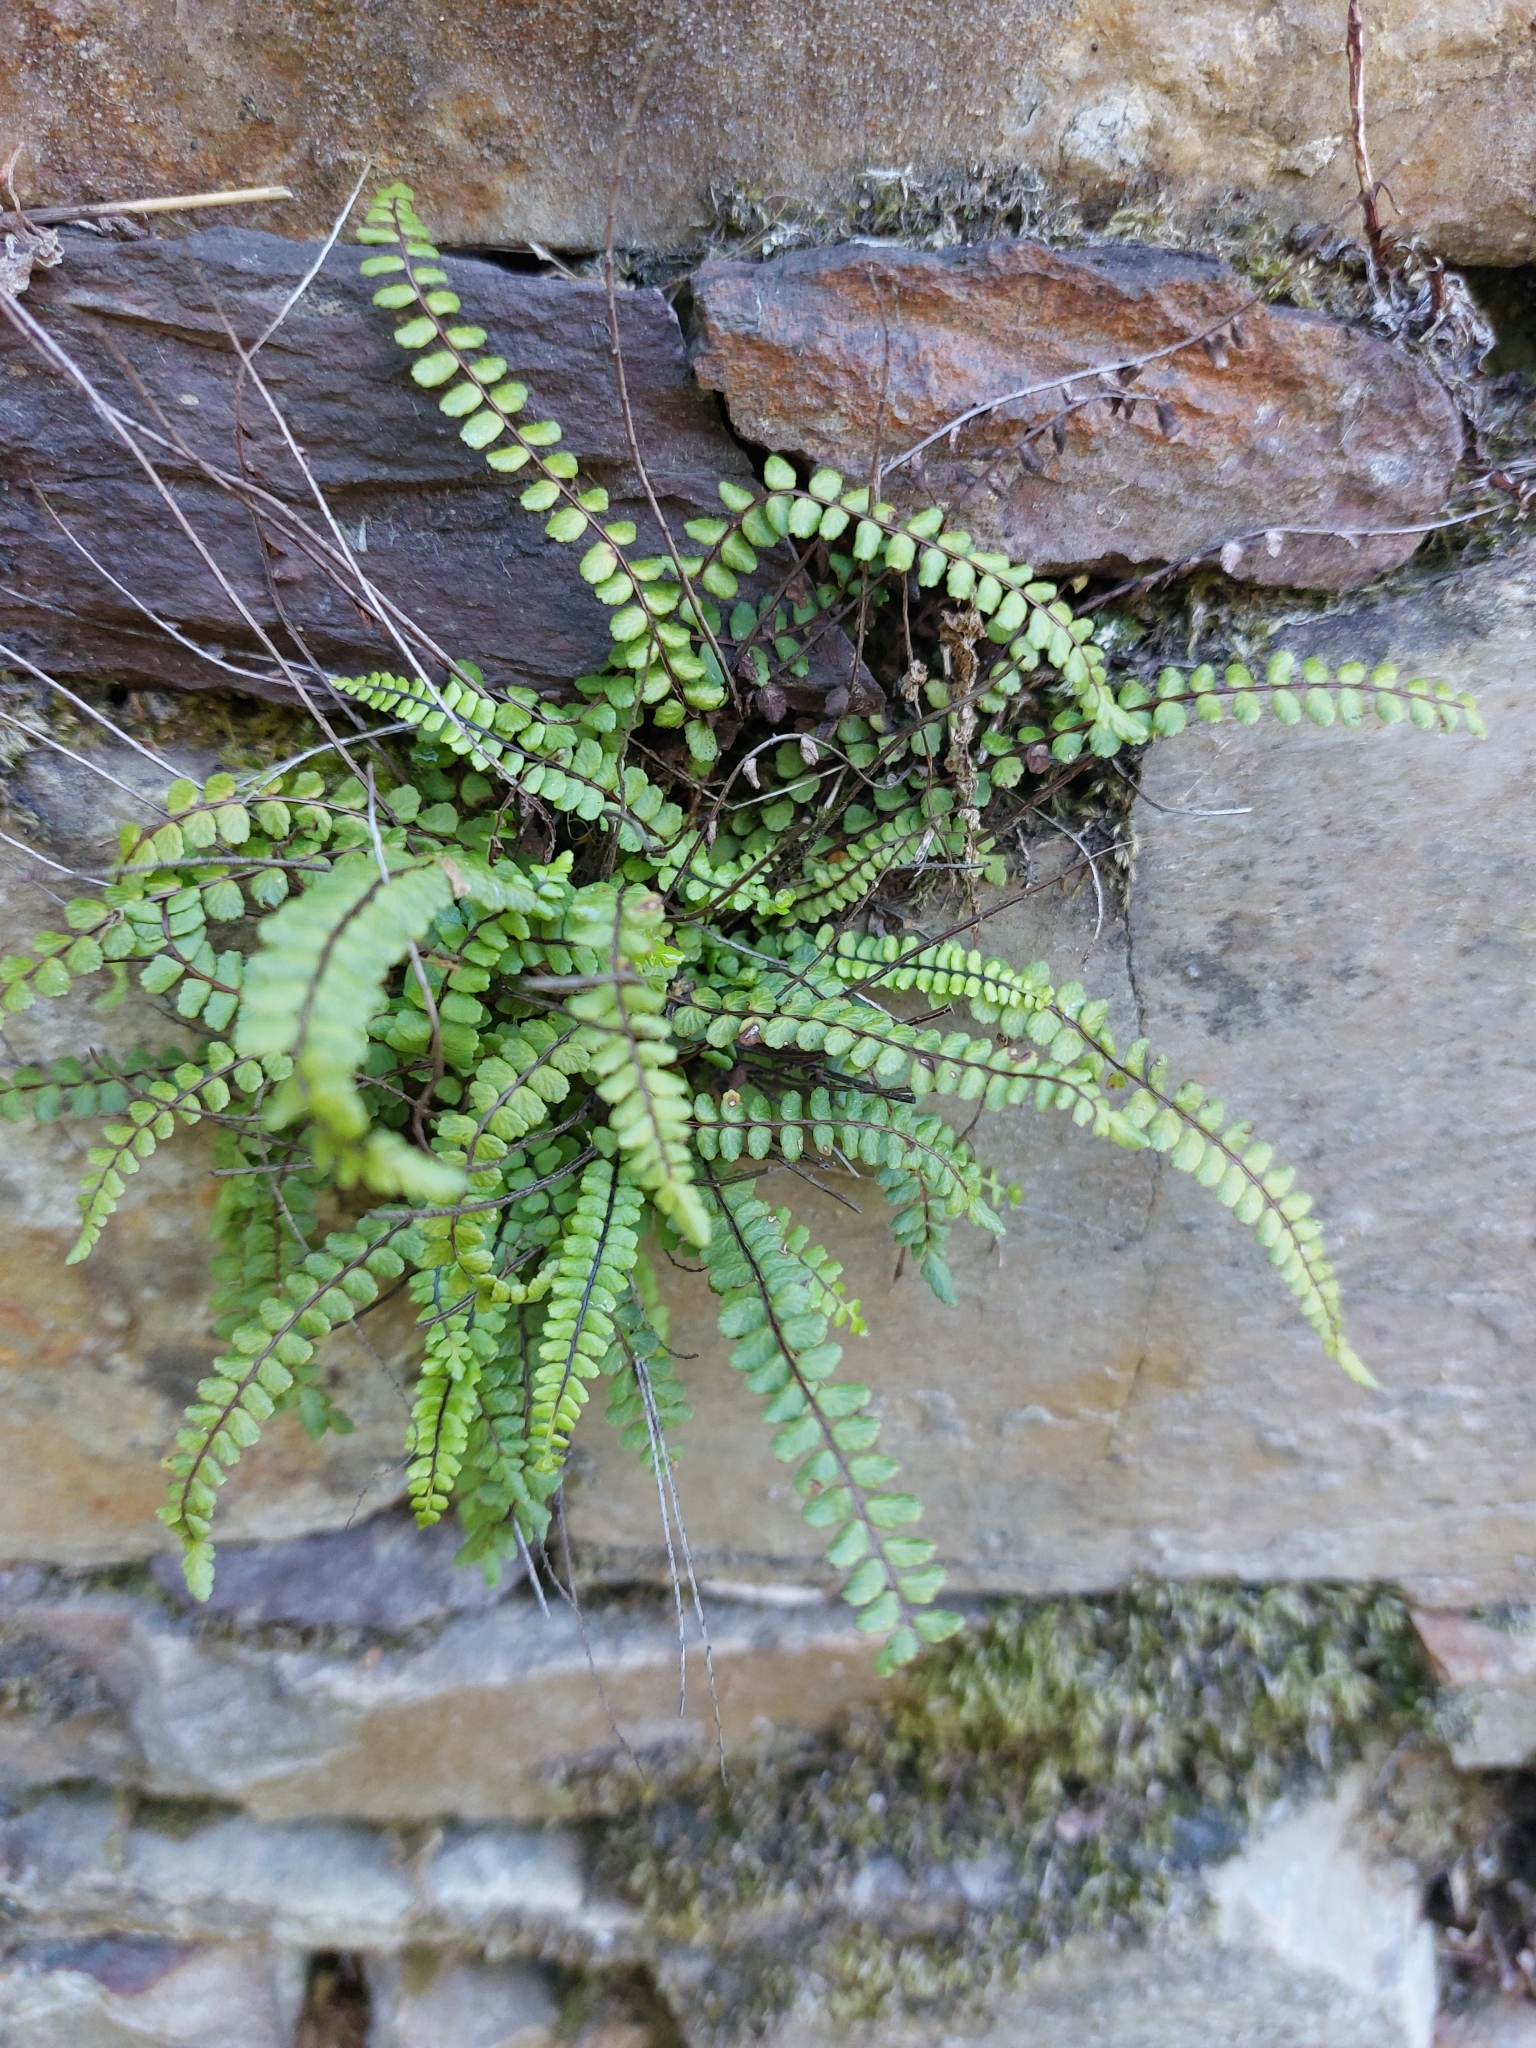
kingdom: Plantae
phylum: Tracheophyta
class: Polypodiopsida
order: Polypodiales
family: Aspleniaceae
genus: Asplenium
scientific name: Asplenium trichomanes
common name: Maidenhair spleenwort
